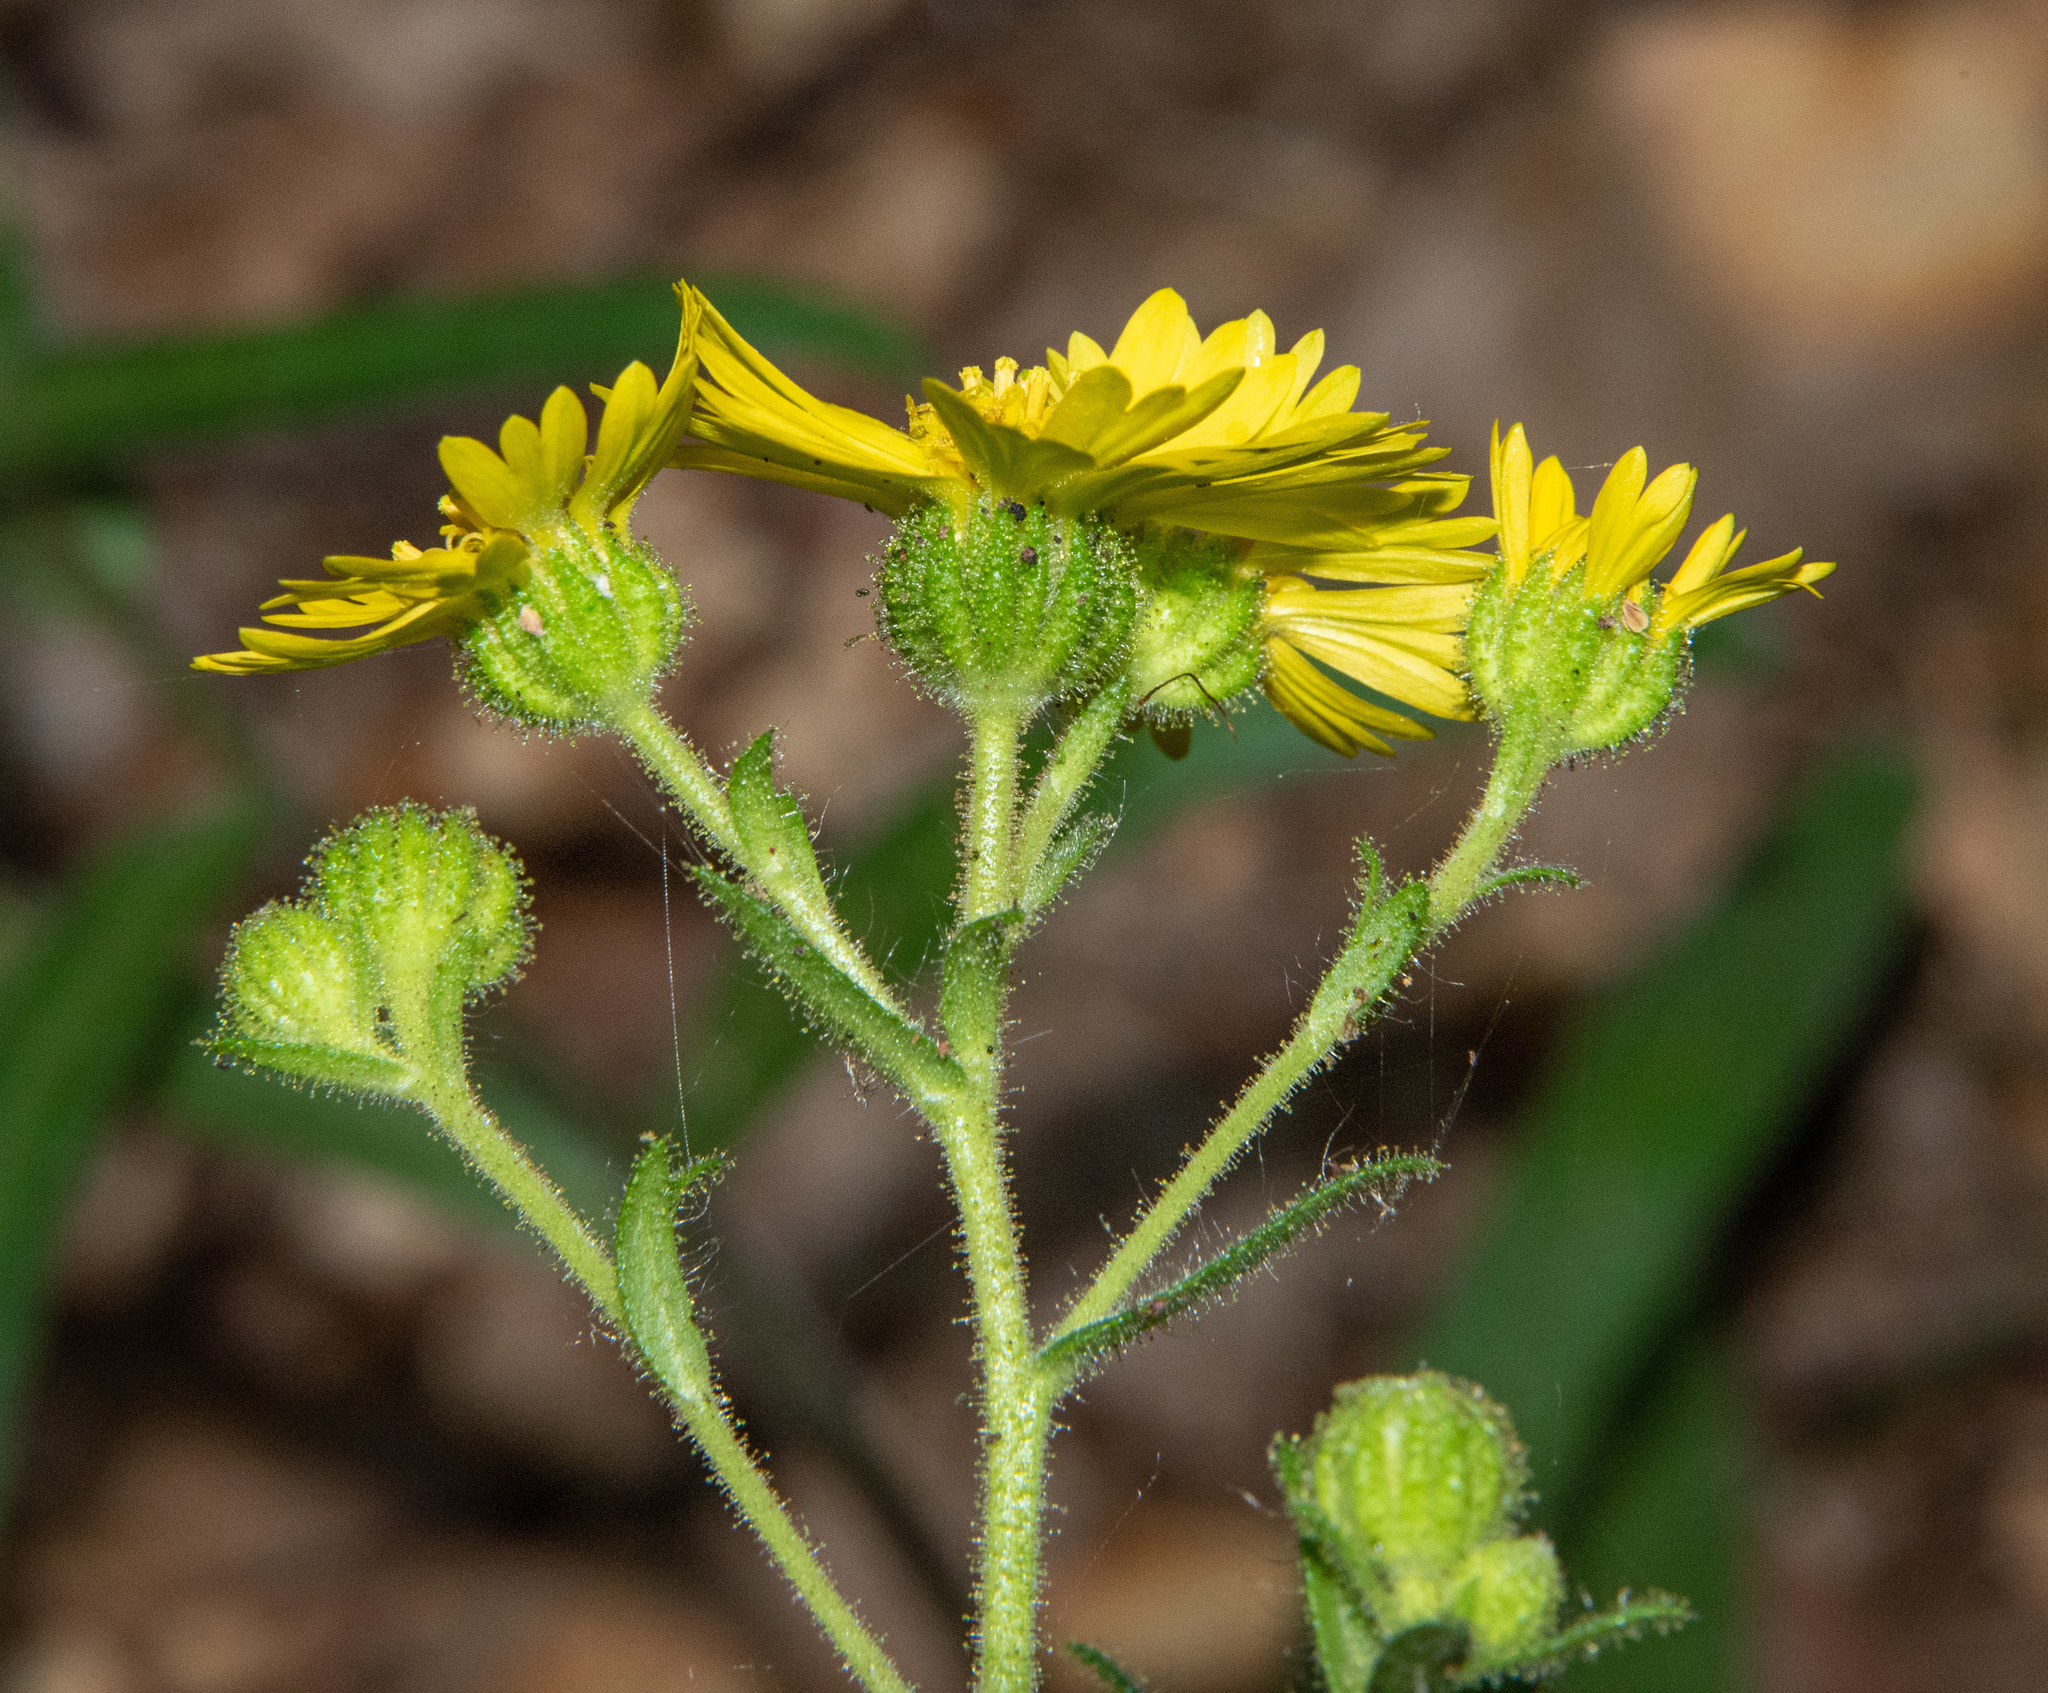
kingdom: Plantae
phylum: Tracheophyta
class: Magnoliopsida
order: Asterales
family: Asteraceae
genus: Anisocarpus
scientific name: Anisocarpus madioides
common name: Woodland madia
